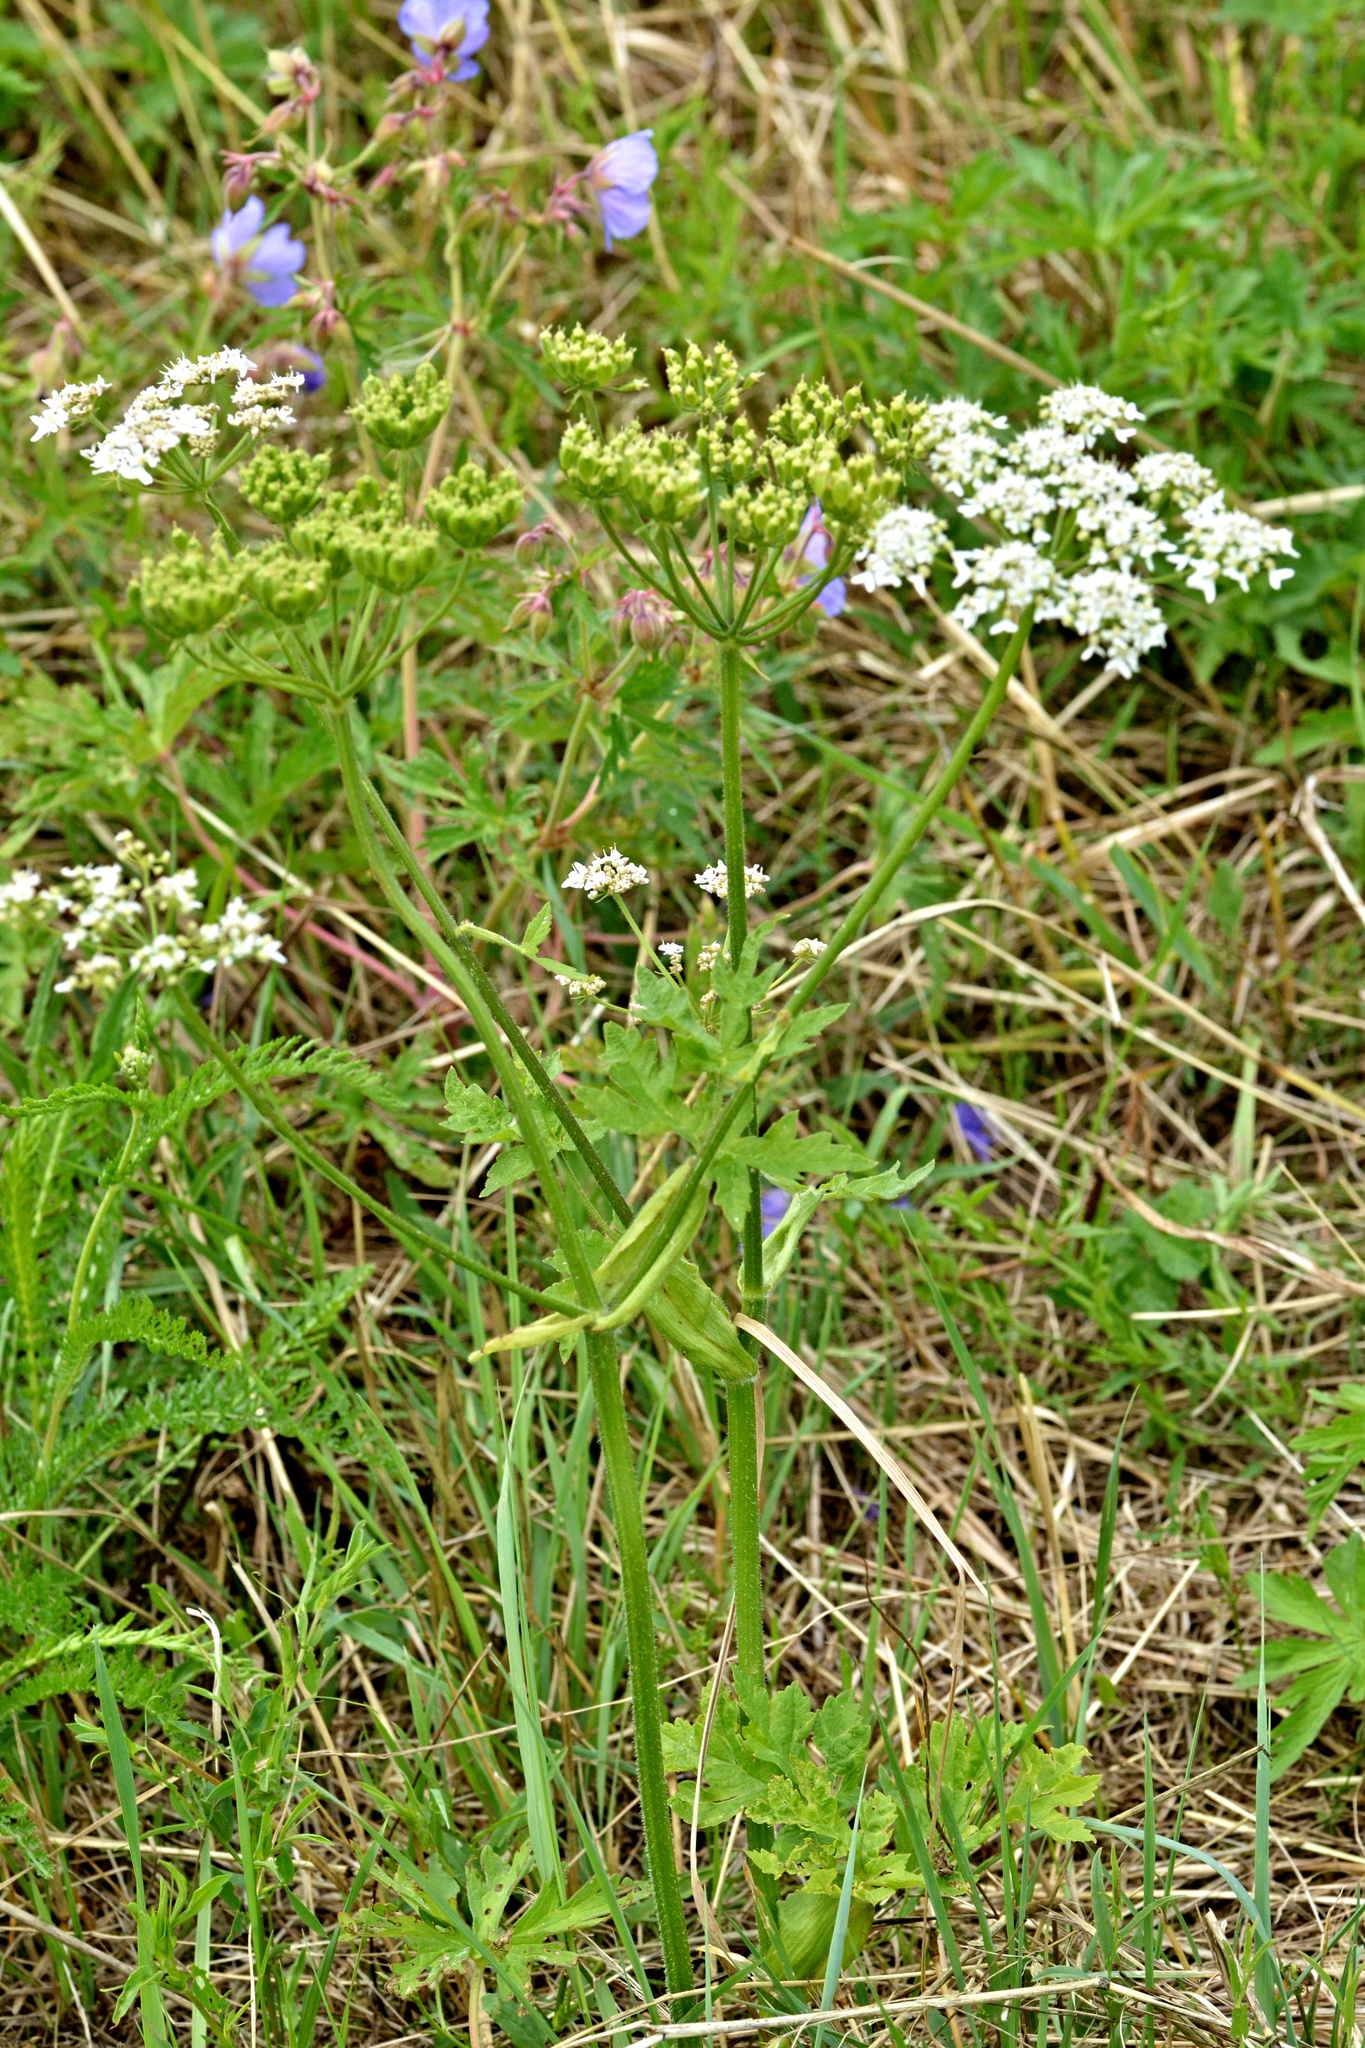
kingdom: Plantae
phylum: Tracheophyta
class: Magnoliopsida
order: Apiales
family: Apiaceae
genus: Heracleum
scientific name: Heracleum sphondylium
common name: Hogweed
